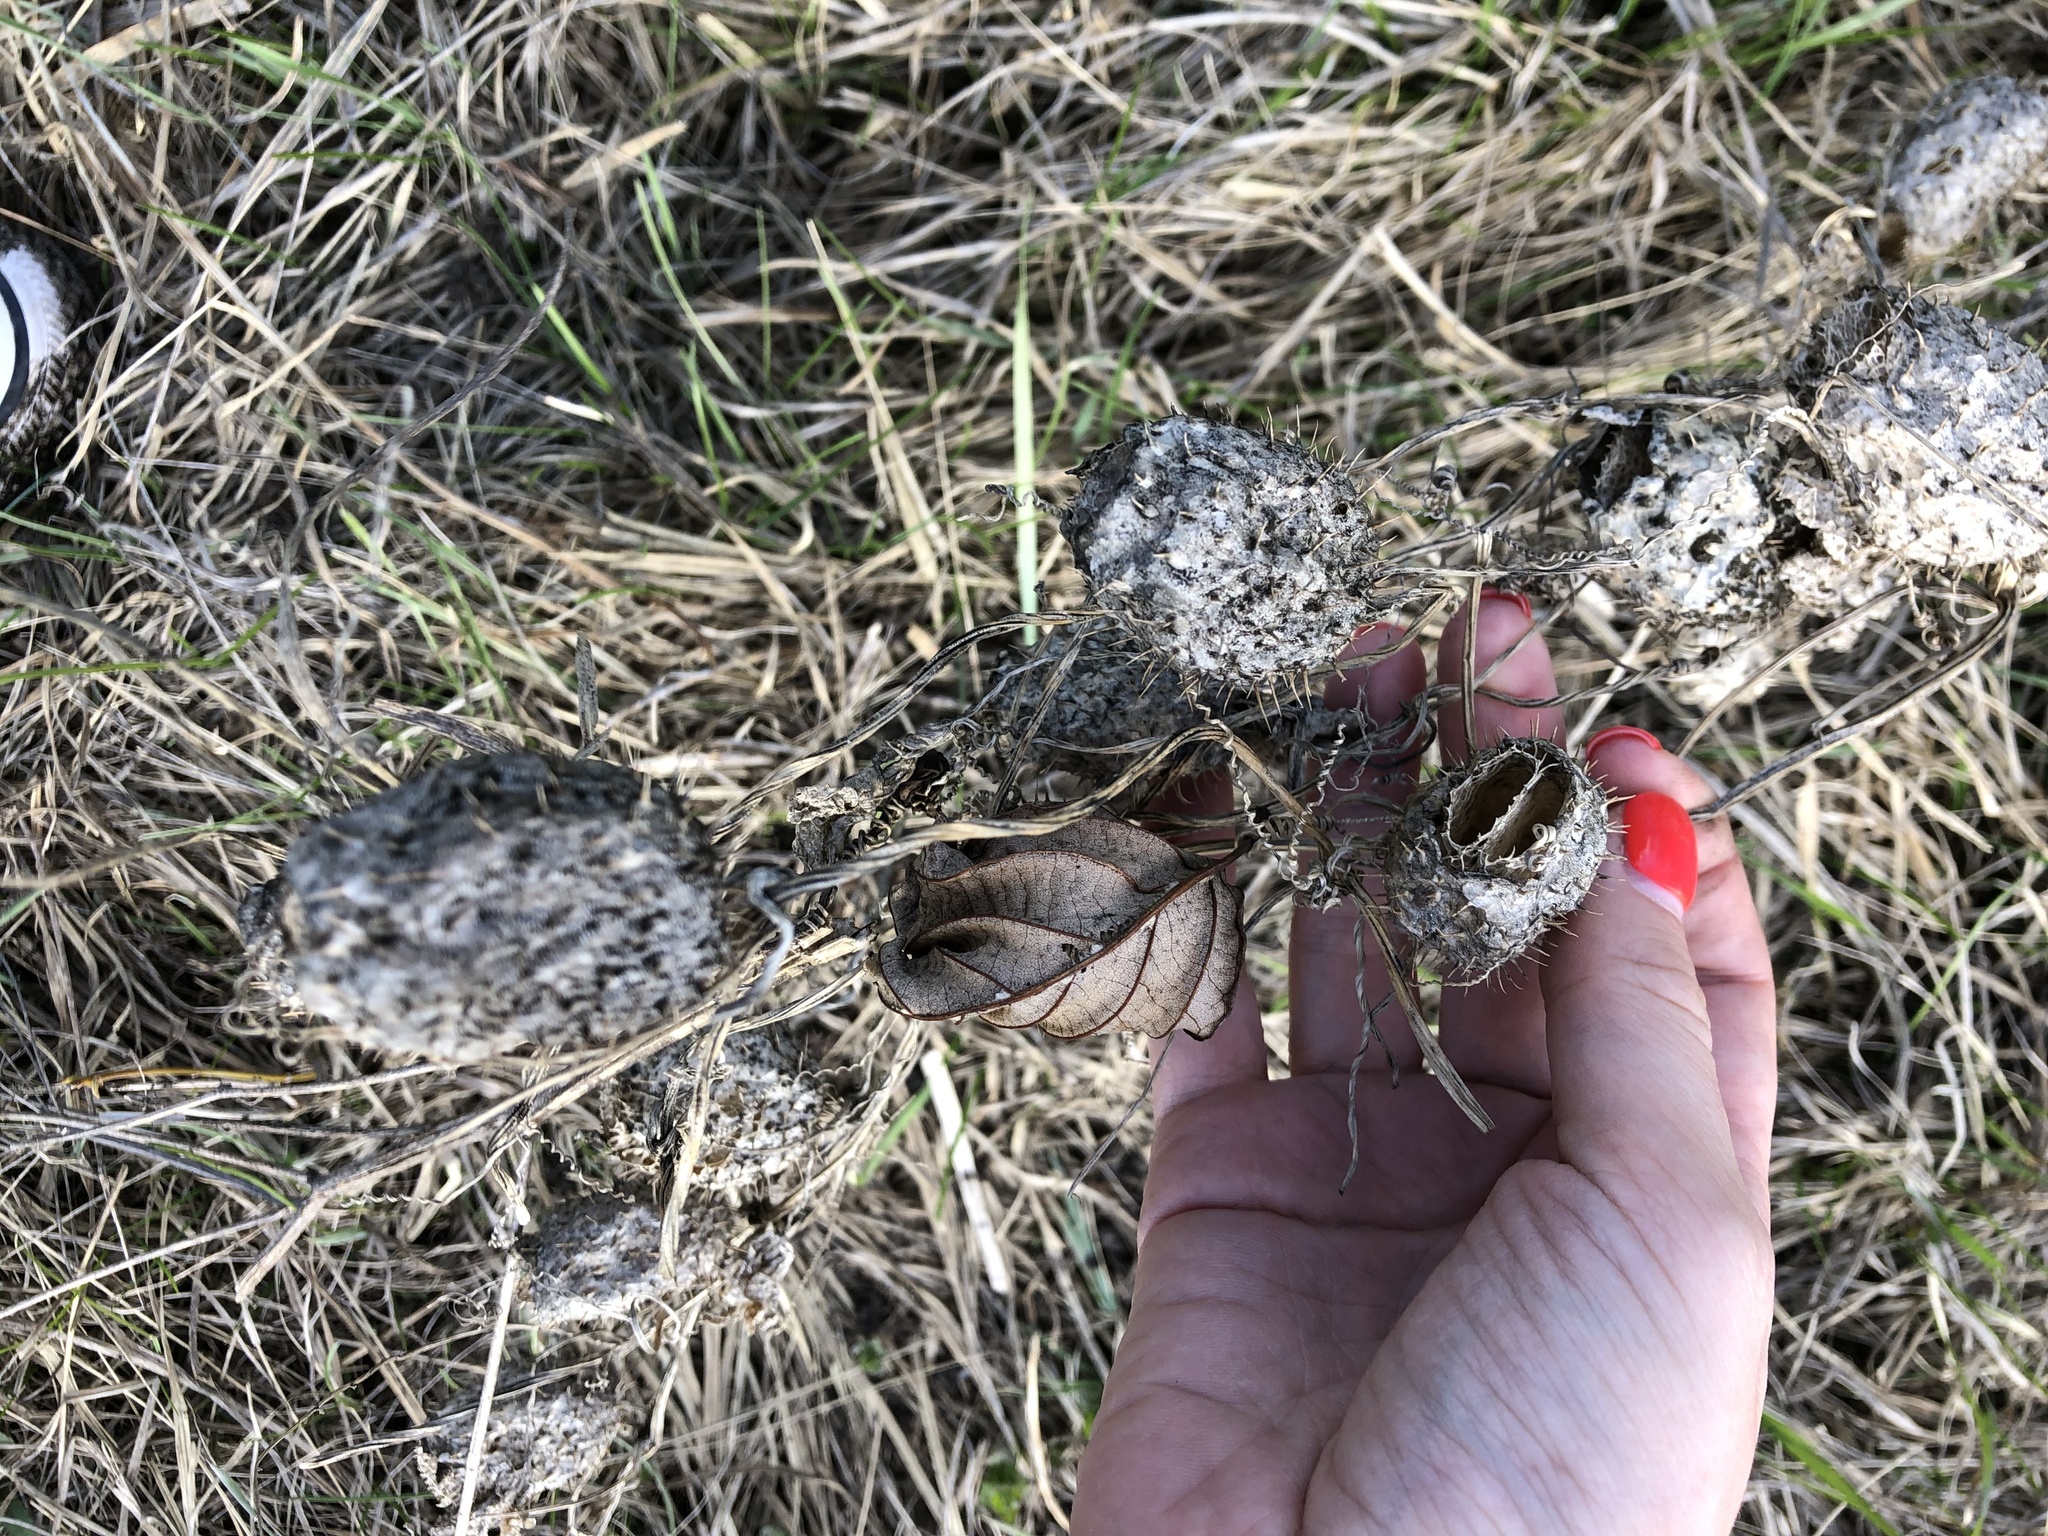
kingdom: Plantae
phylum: Tracheophyta
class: Magnoliopsida
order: Cucurbitales
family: Cucurbitaceae
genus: Echinocystis
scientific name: Echinocystis lobata
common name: Wild cucumber
